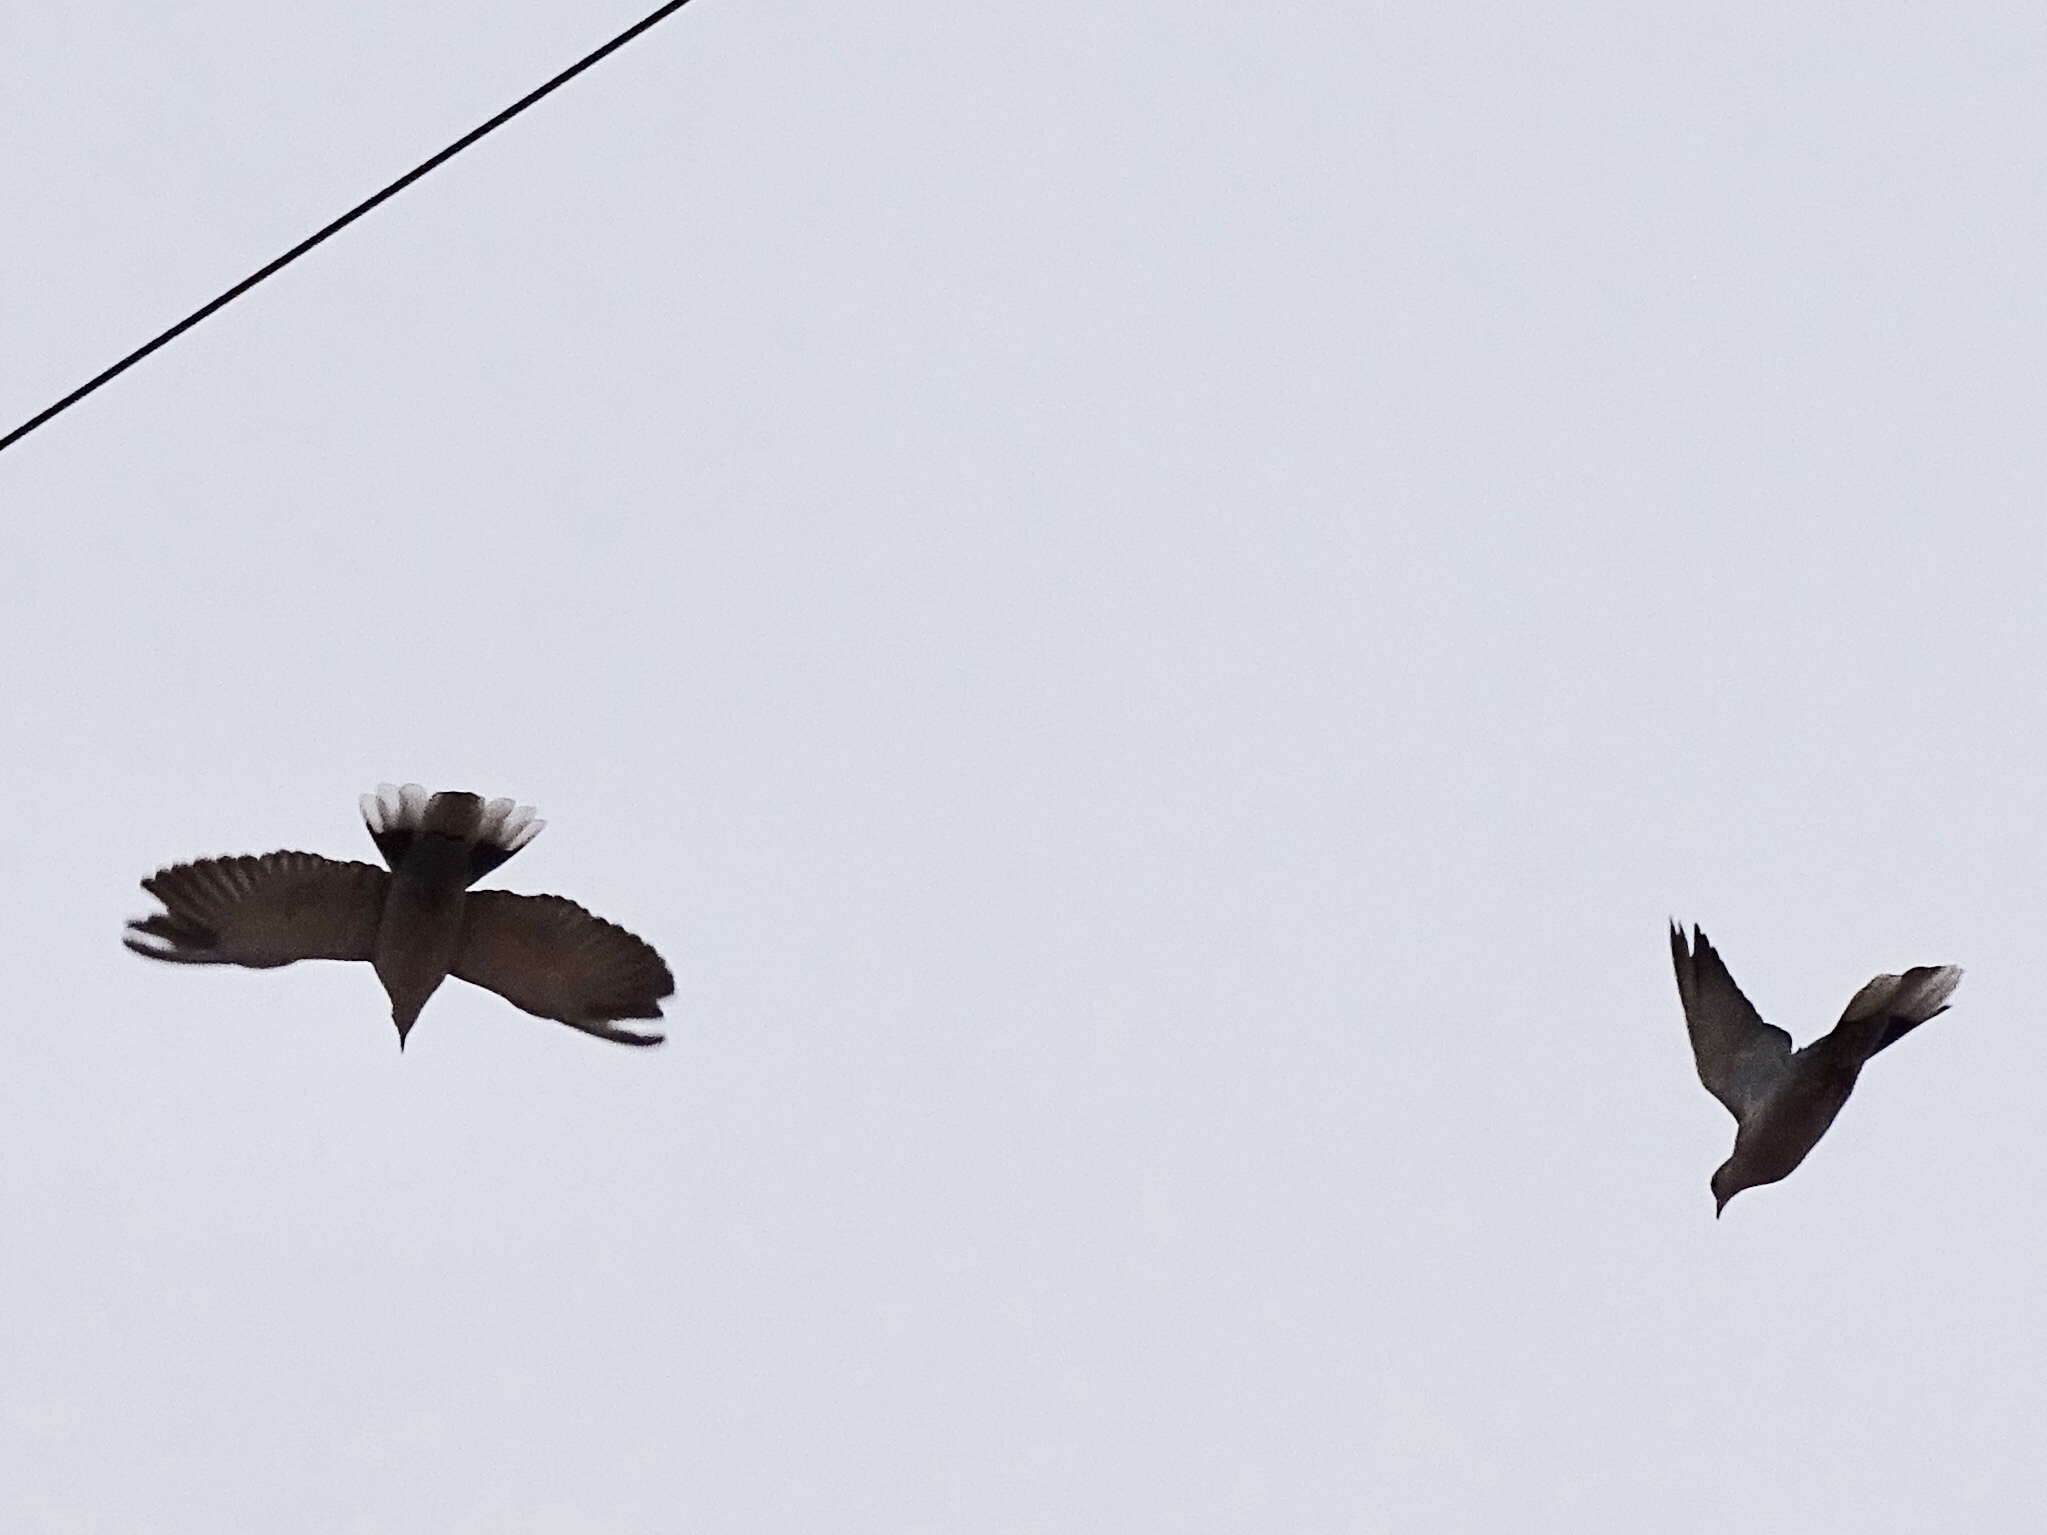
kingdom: Animalia
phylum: Chordata
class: Aves
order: Columbiformes
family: Columbidae
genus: Streptopelia
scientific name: Streptopelia decaocto
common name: Eurasian collared dove
